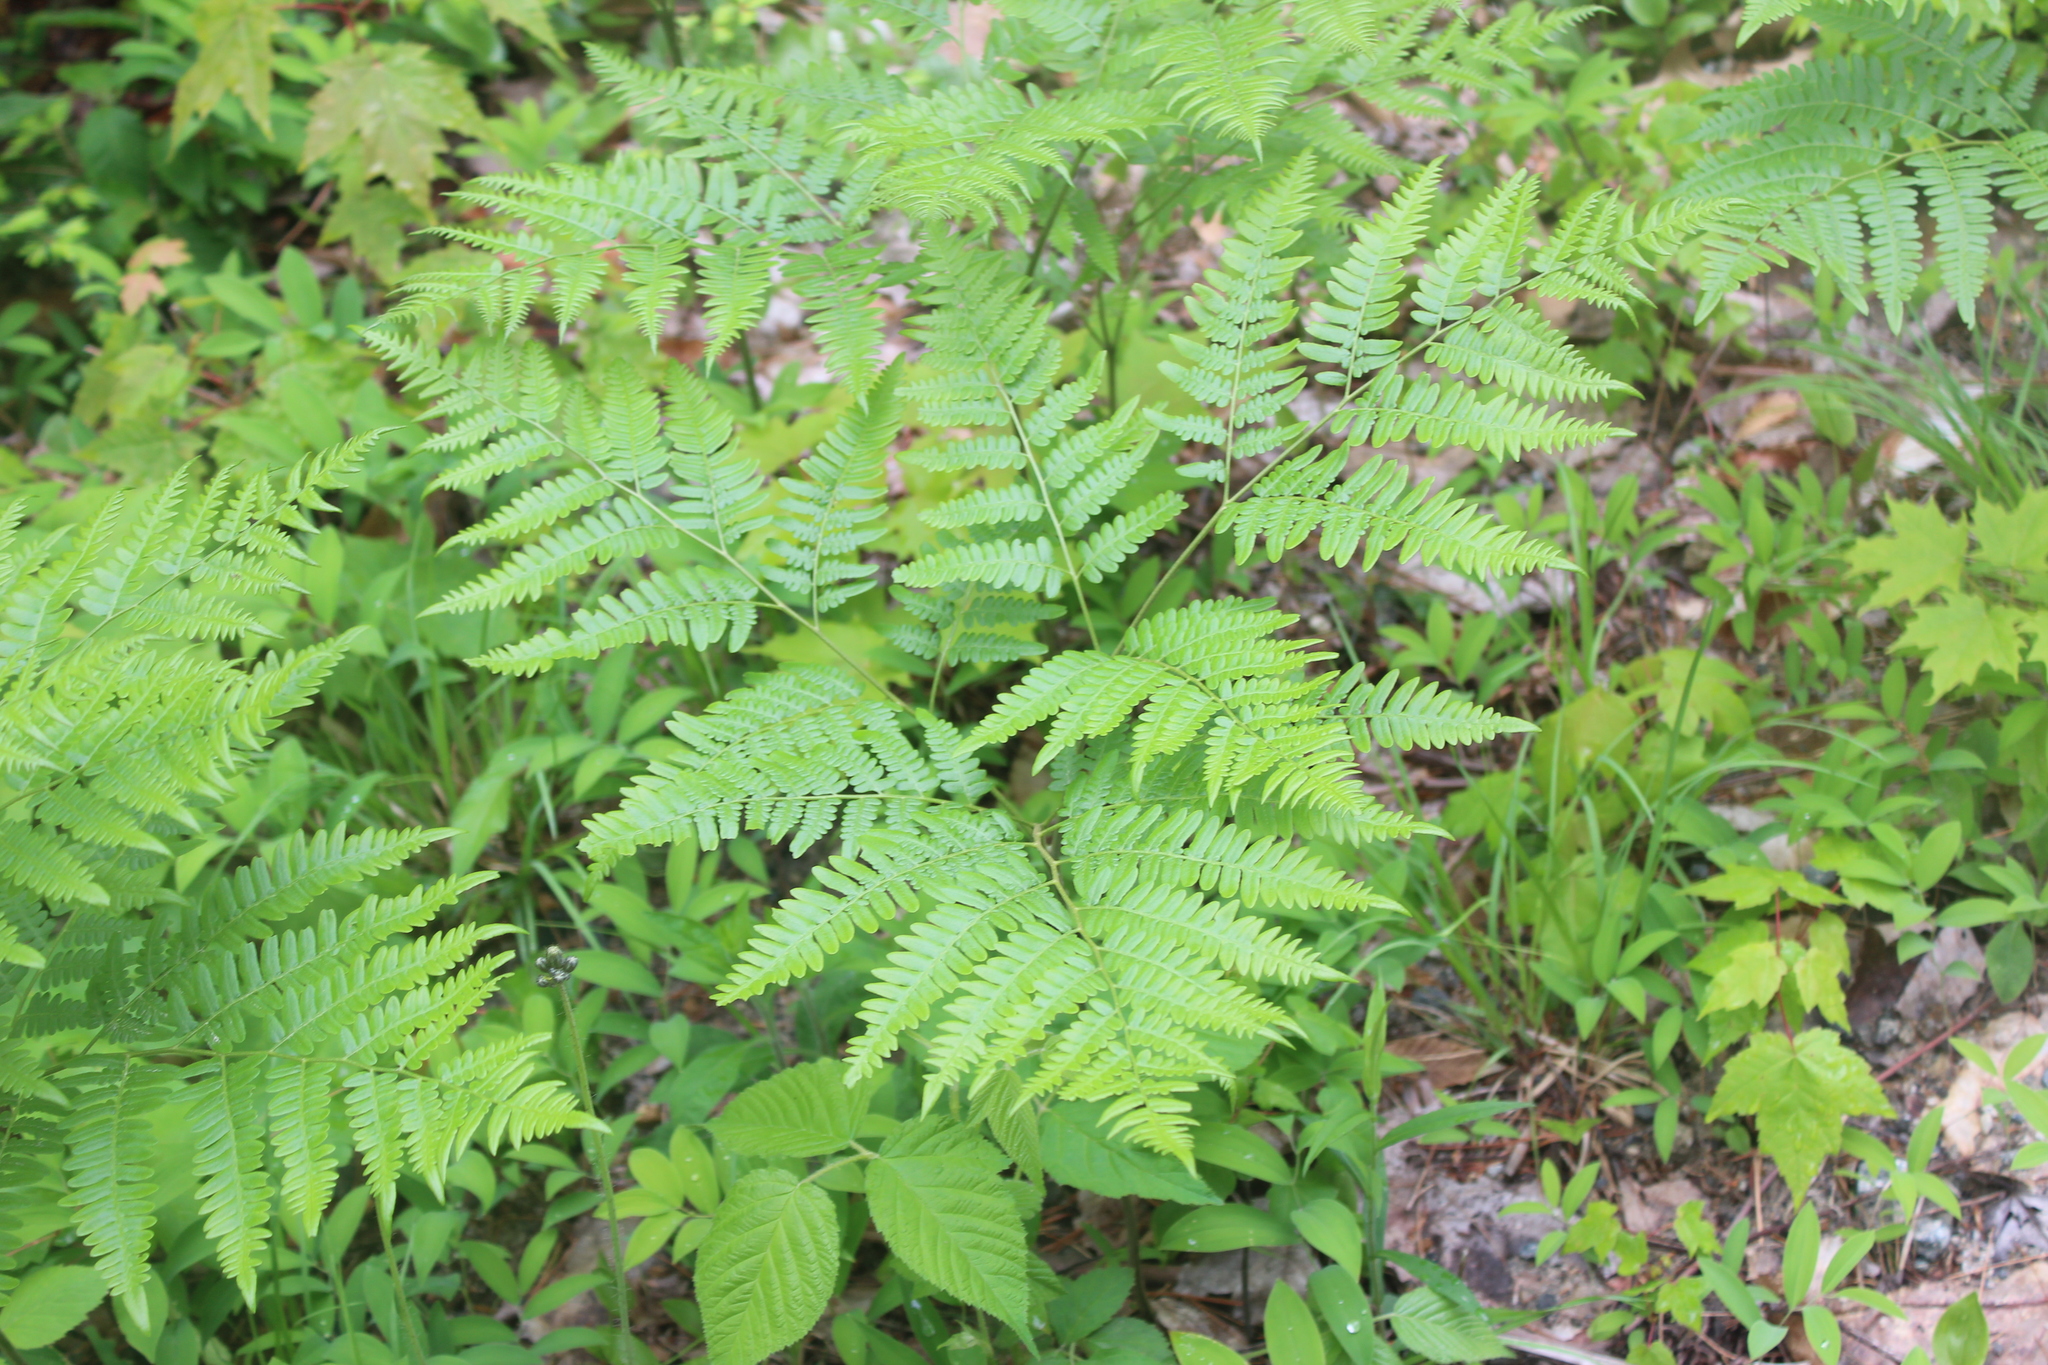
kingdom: Plantae
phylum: Tracheophyta
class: Polypodiopsida
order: Polypodiales
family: Dennstaedtiaceae
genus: Pteridium
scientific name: Pteridium aquilinum
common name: Bracken
